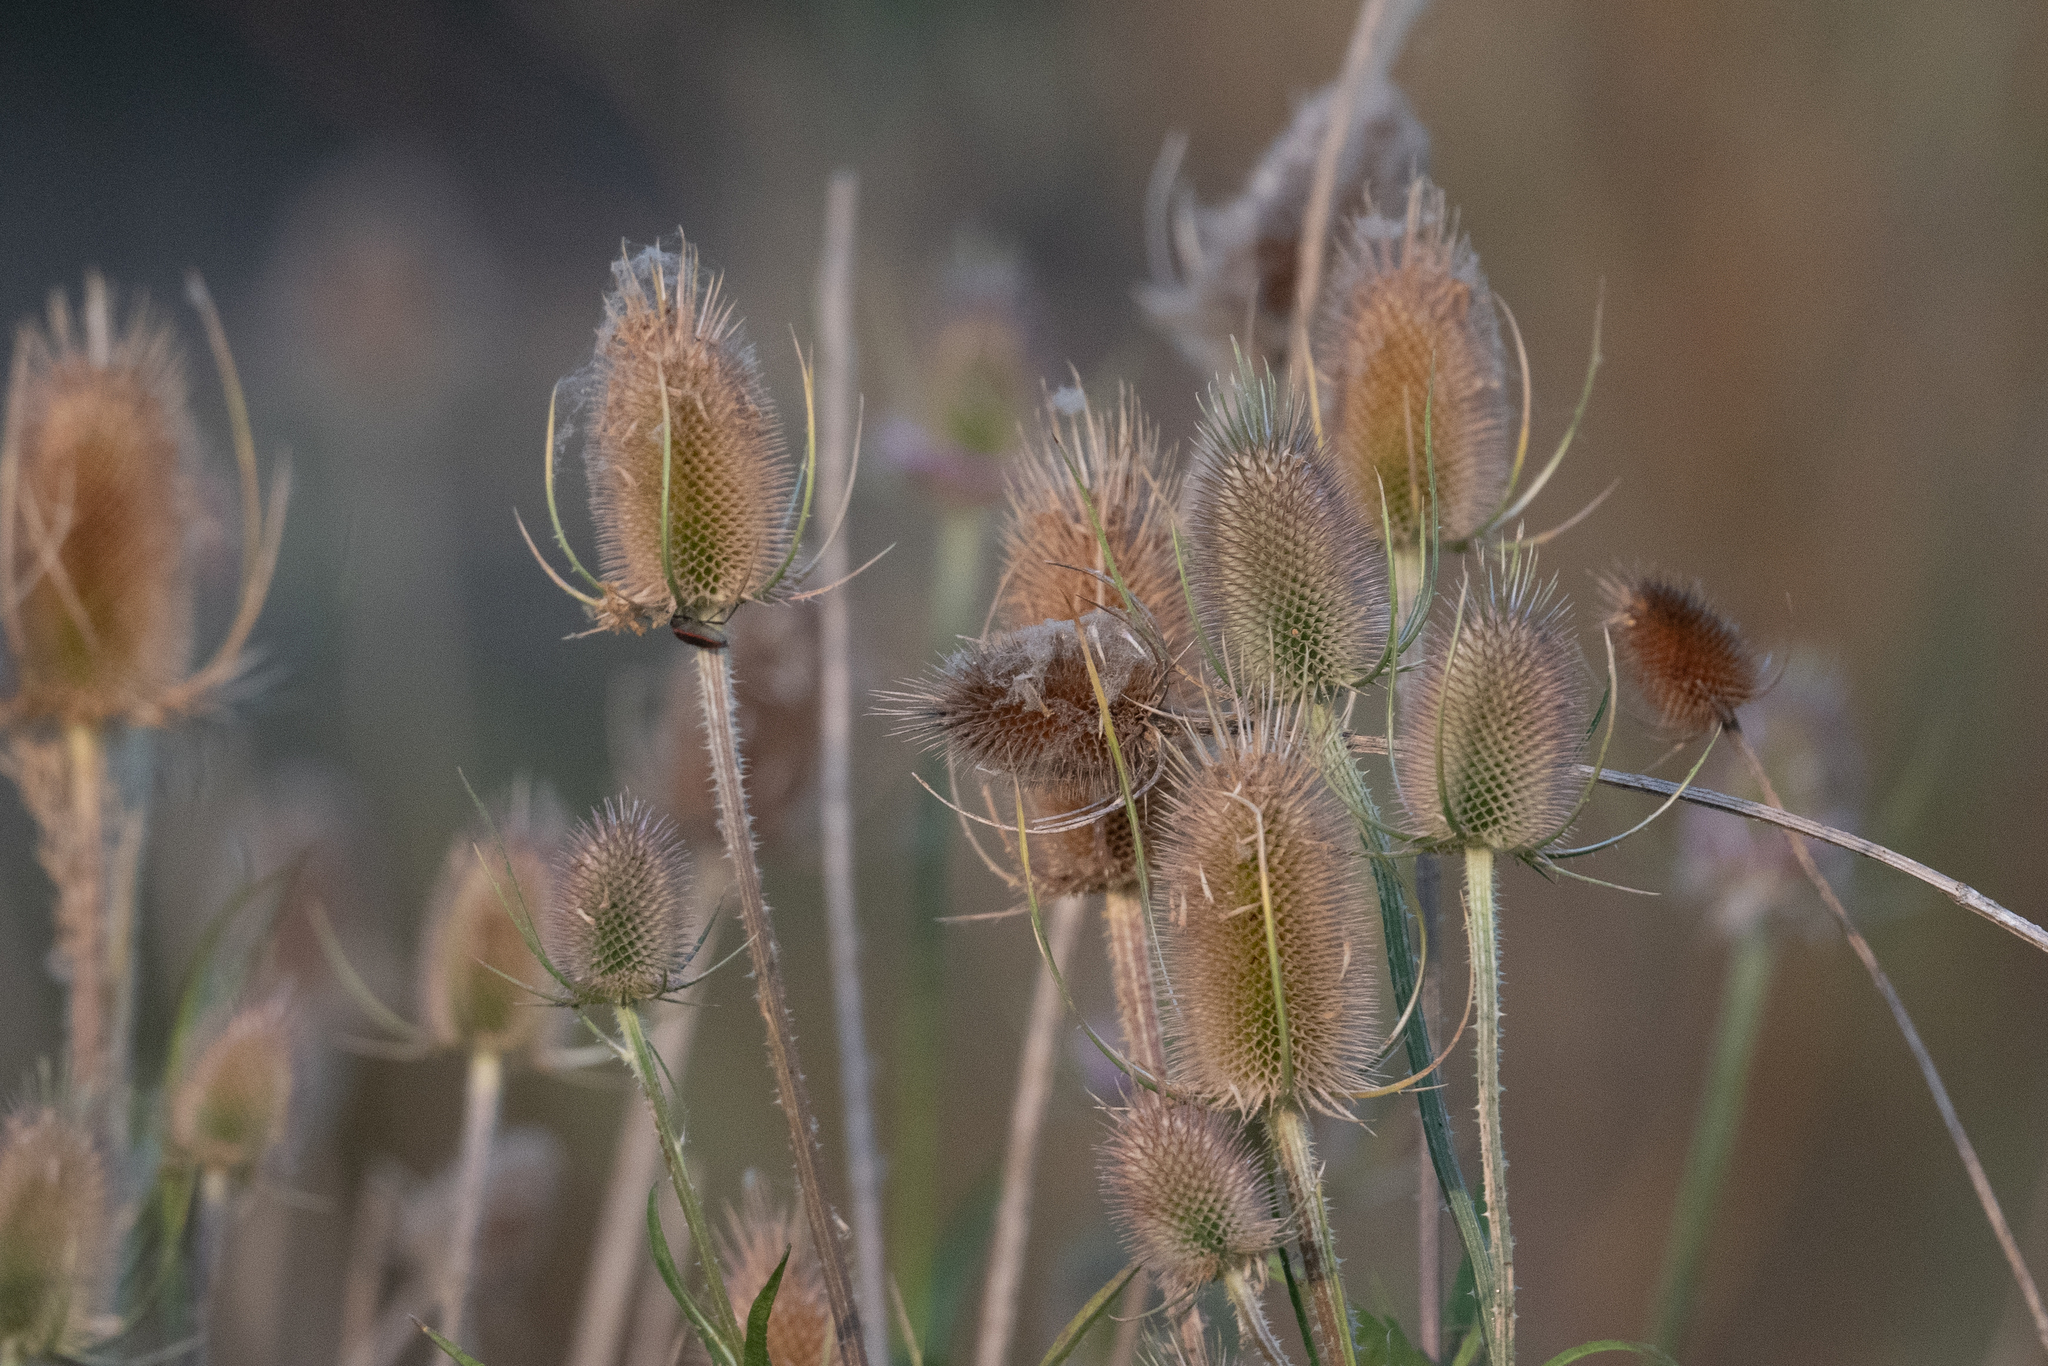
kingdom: Plantae
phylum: Tracheophyta
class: Magnoliopsida
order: Dipsacales
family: Caprifoliaceae
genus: Dipsacus
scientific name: Dipsacus fullonum
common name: Teasel
